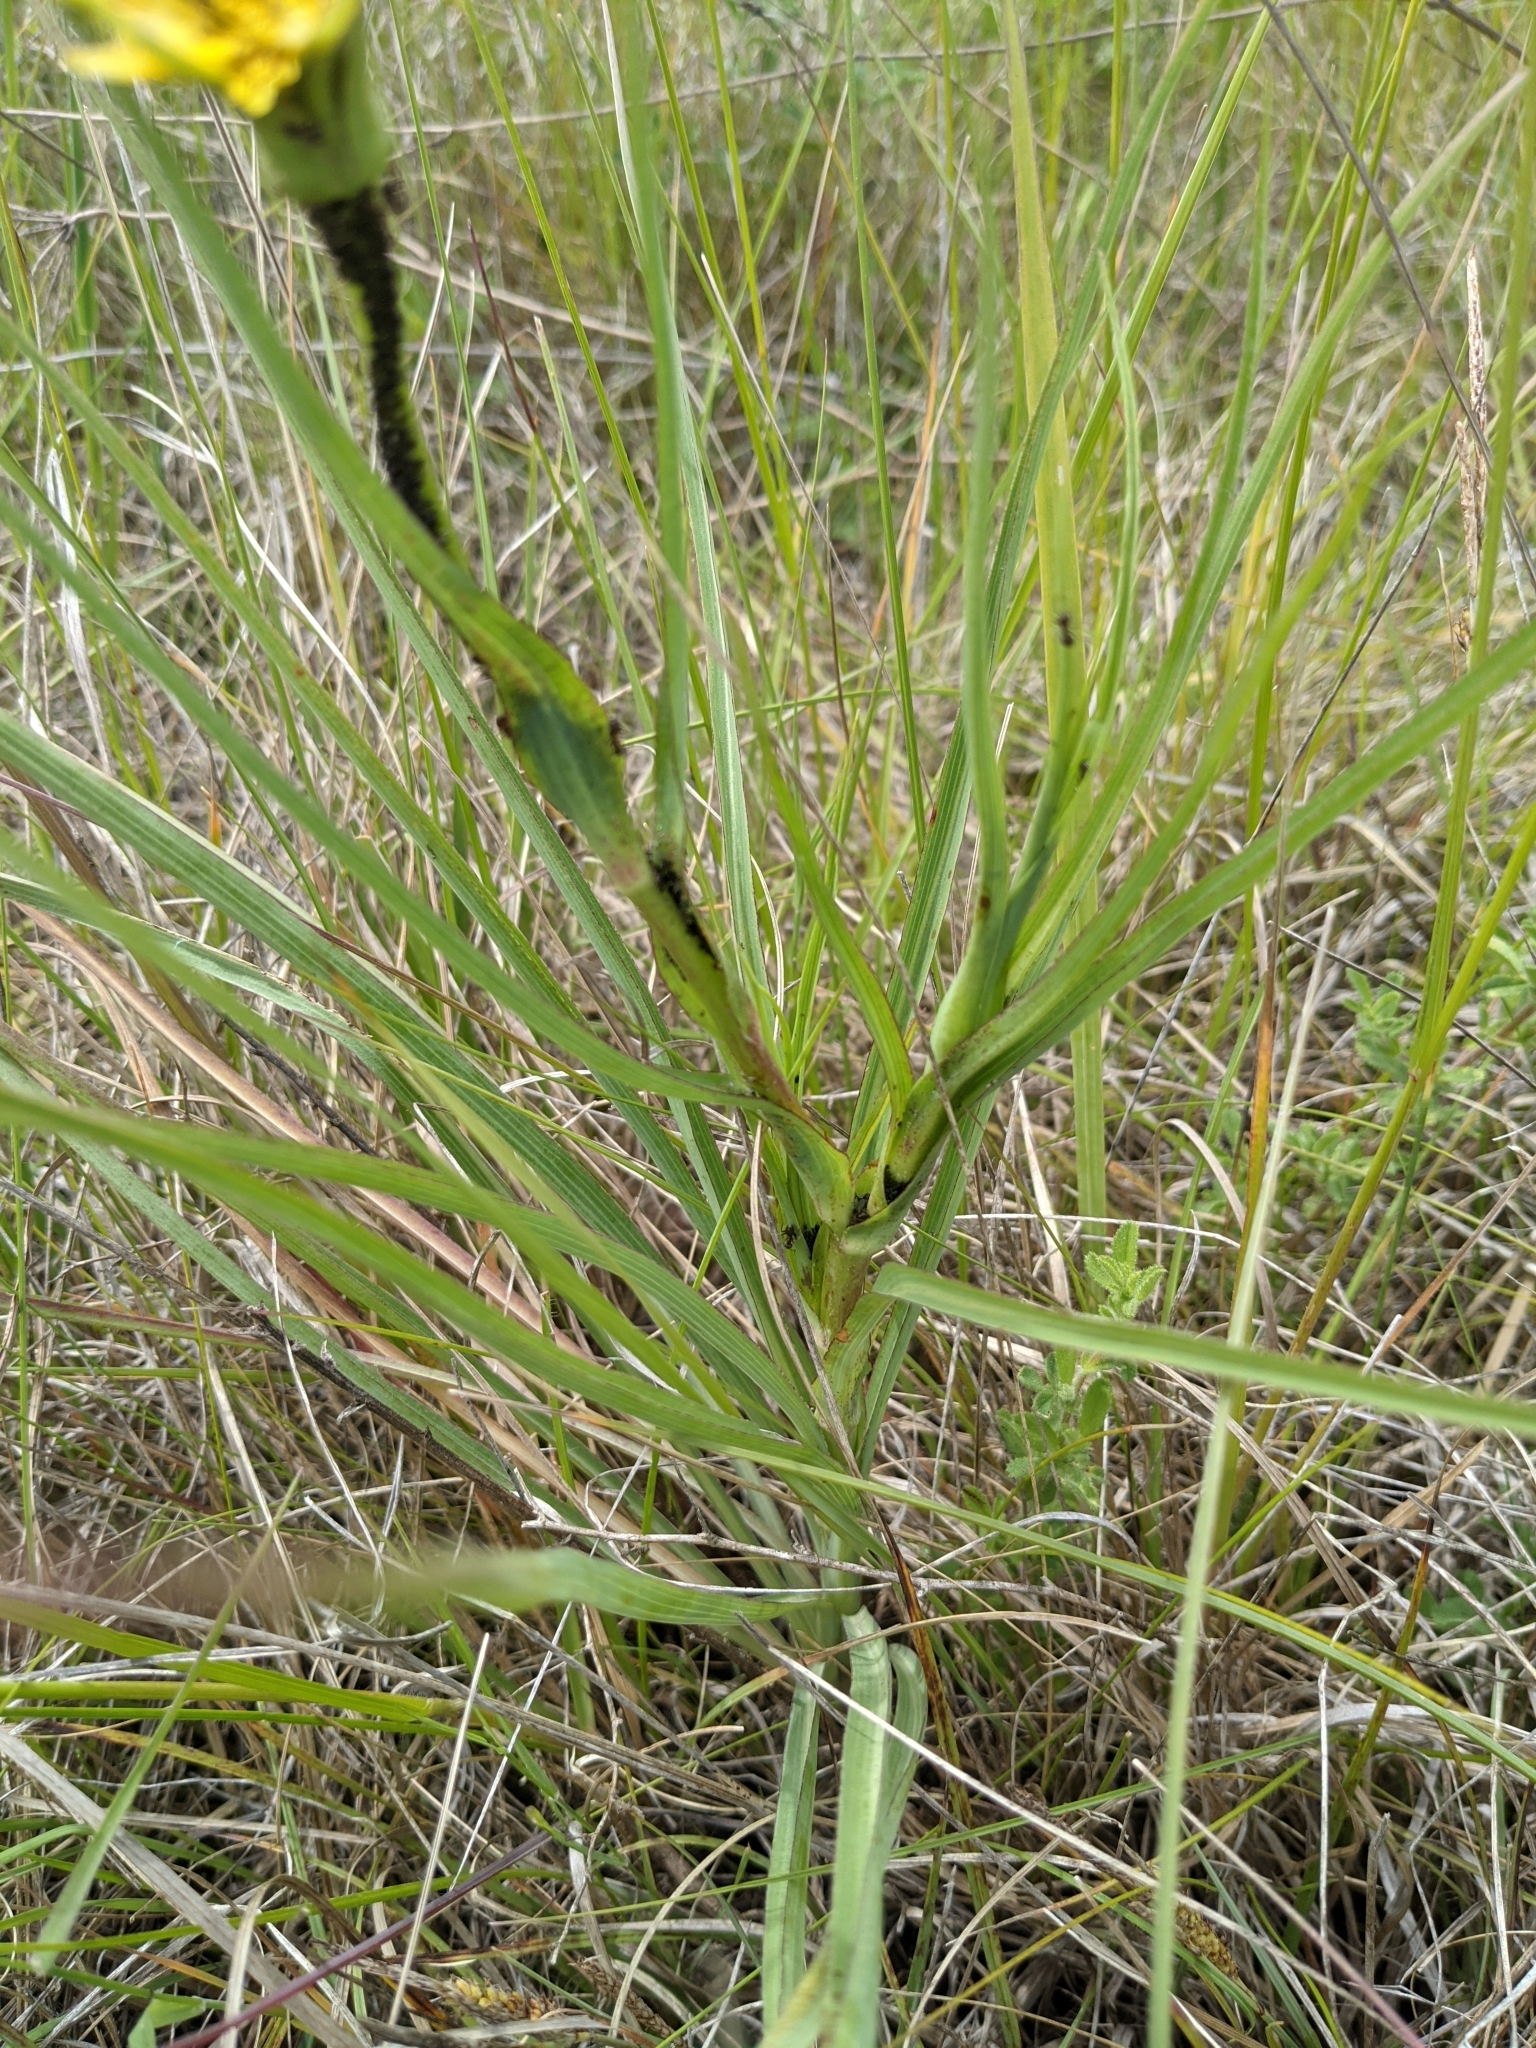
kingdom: Plantae
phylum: Tracheophyta
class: Magnoliopsida
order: Asterales
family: Asteraceae
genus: Tragopogon
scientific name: Tragopogon dubius
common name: Yellow salsify
